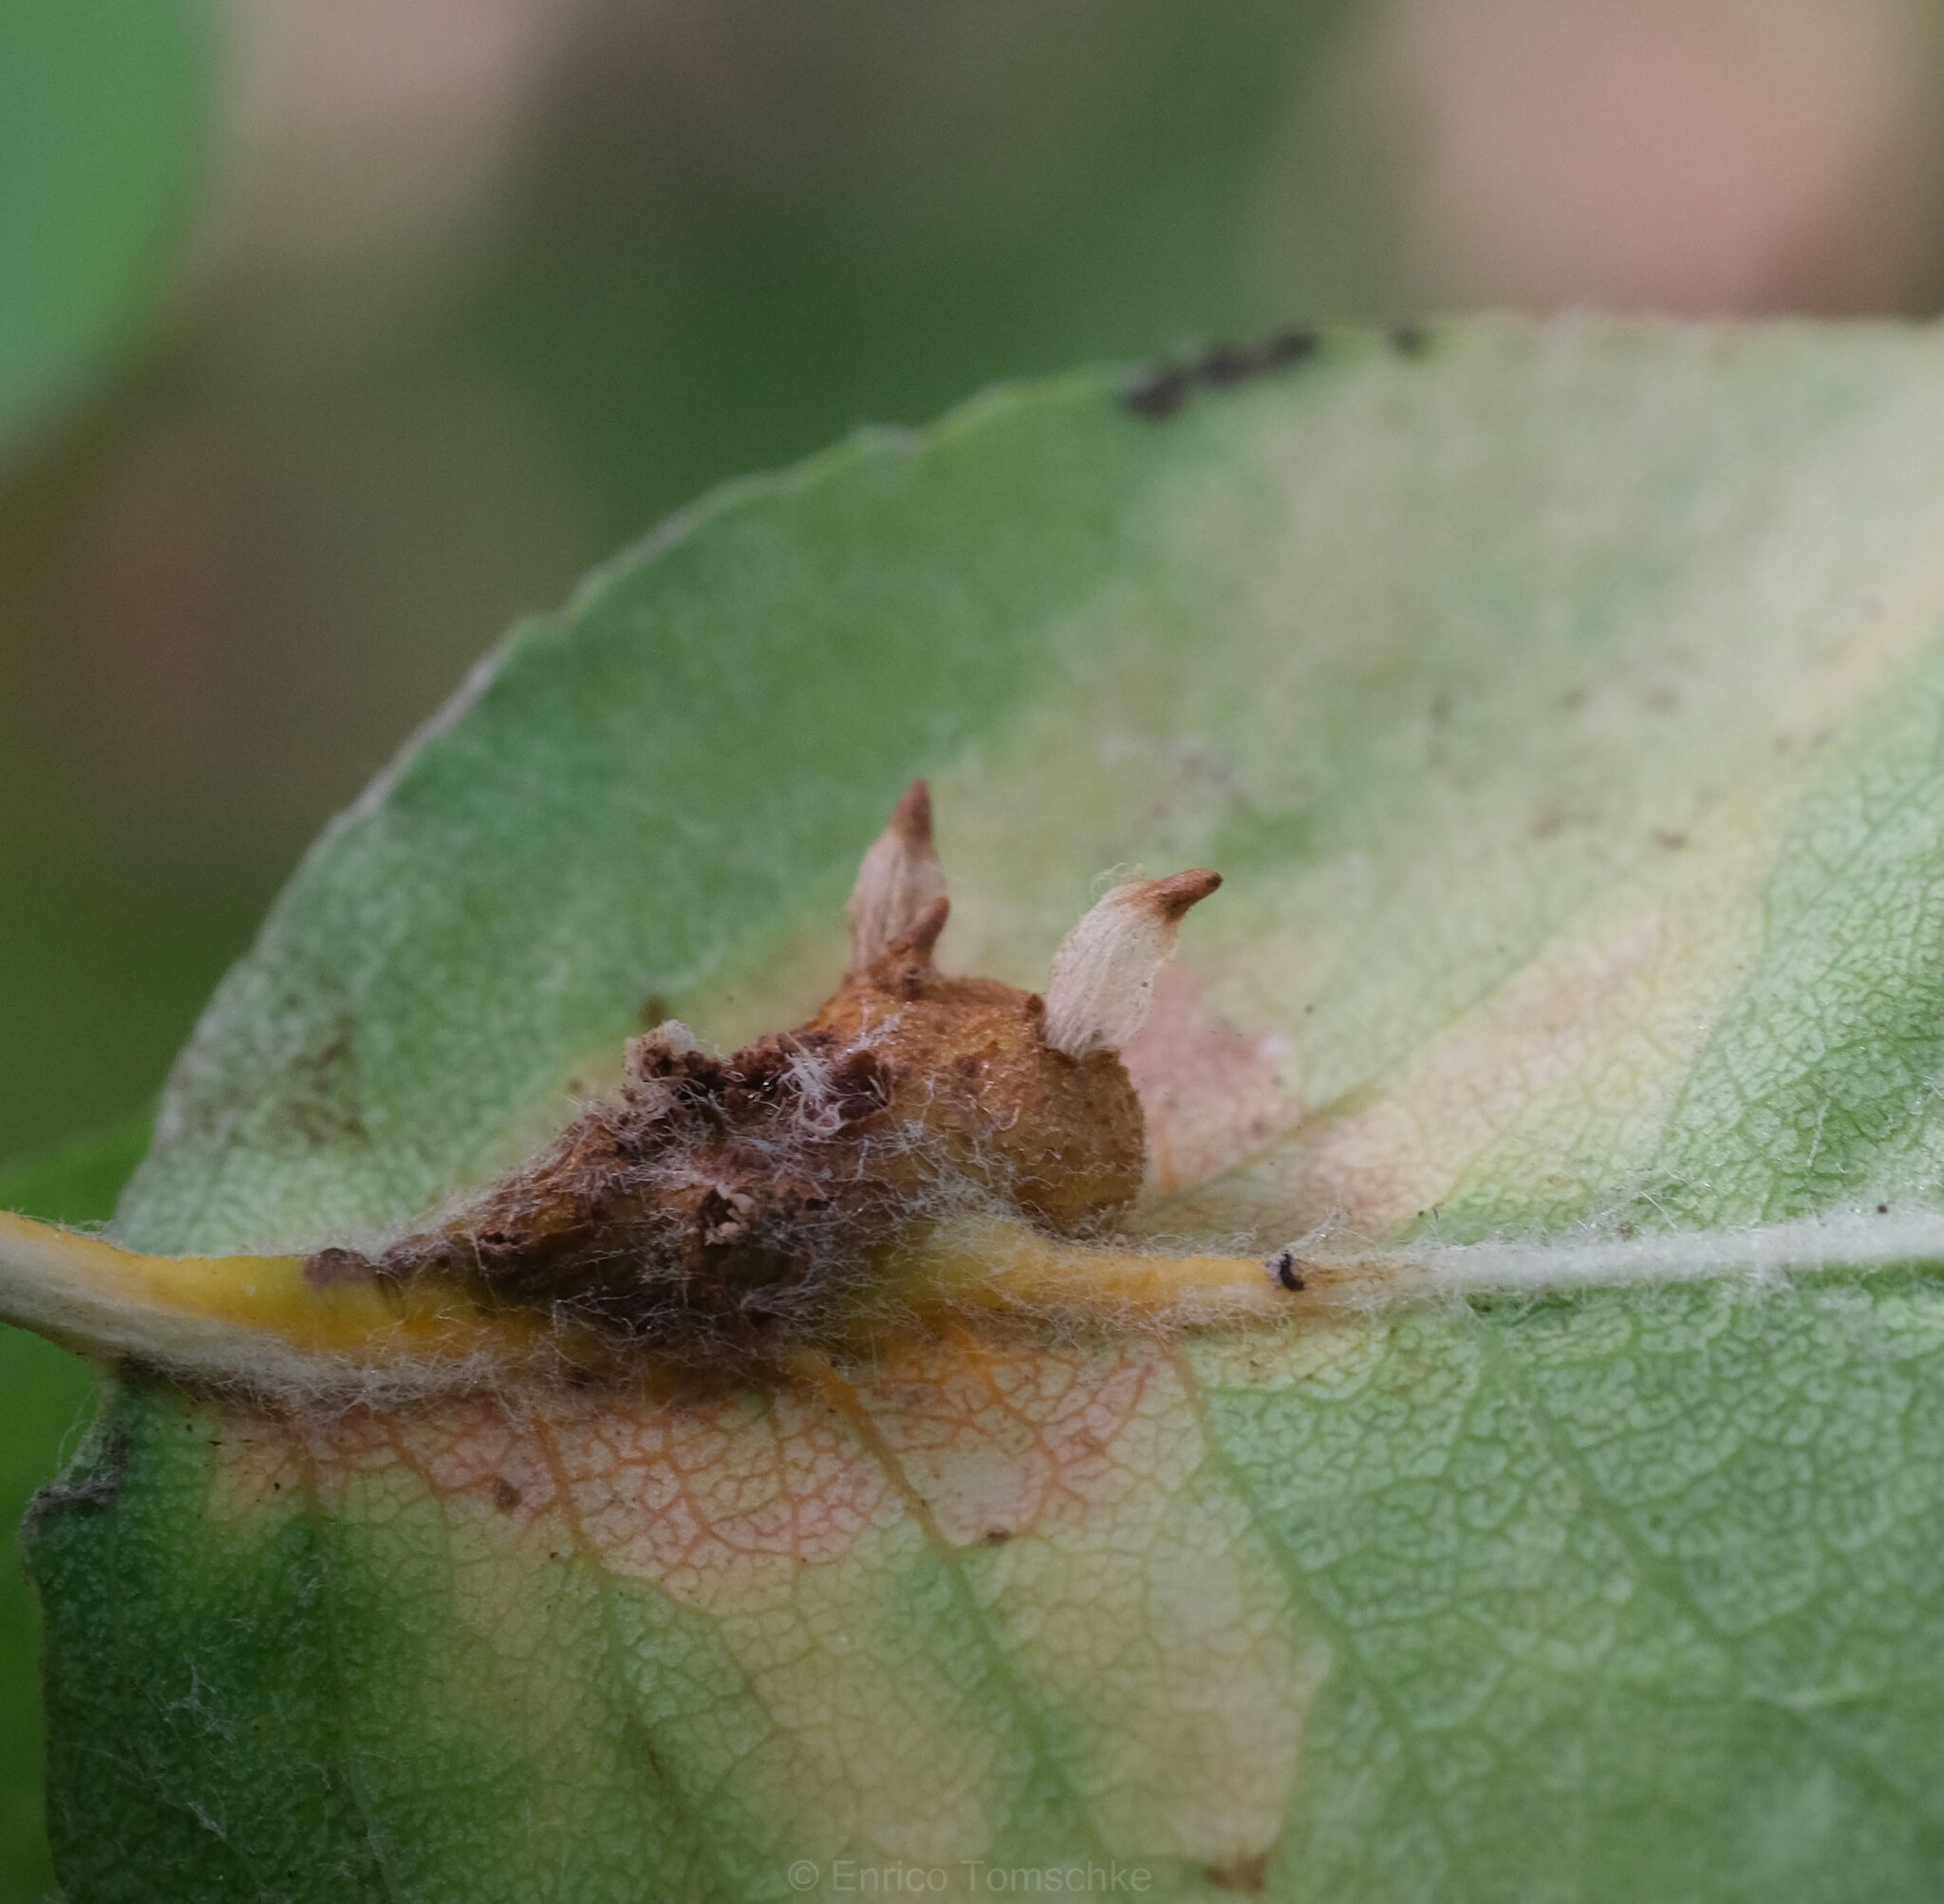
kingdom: Fungi
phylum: Basidiomycota
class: Pucciniomycetes
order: Pucciniales
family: Gymnosporangiaceae
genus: Gymnosporangium
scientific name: Gymnosporangium sabinae
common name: Pear trellis rust fungus
